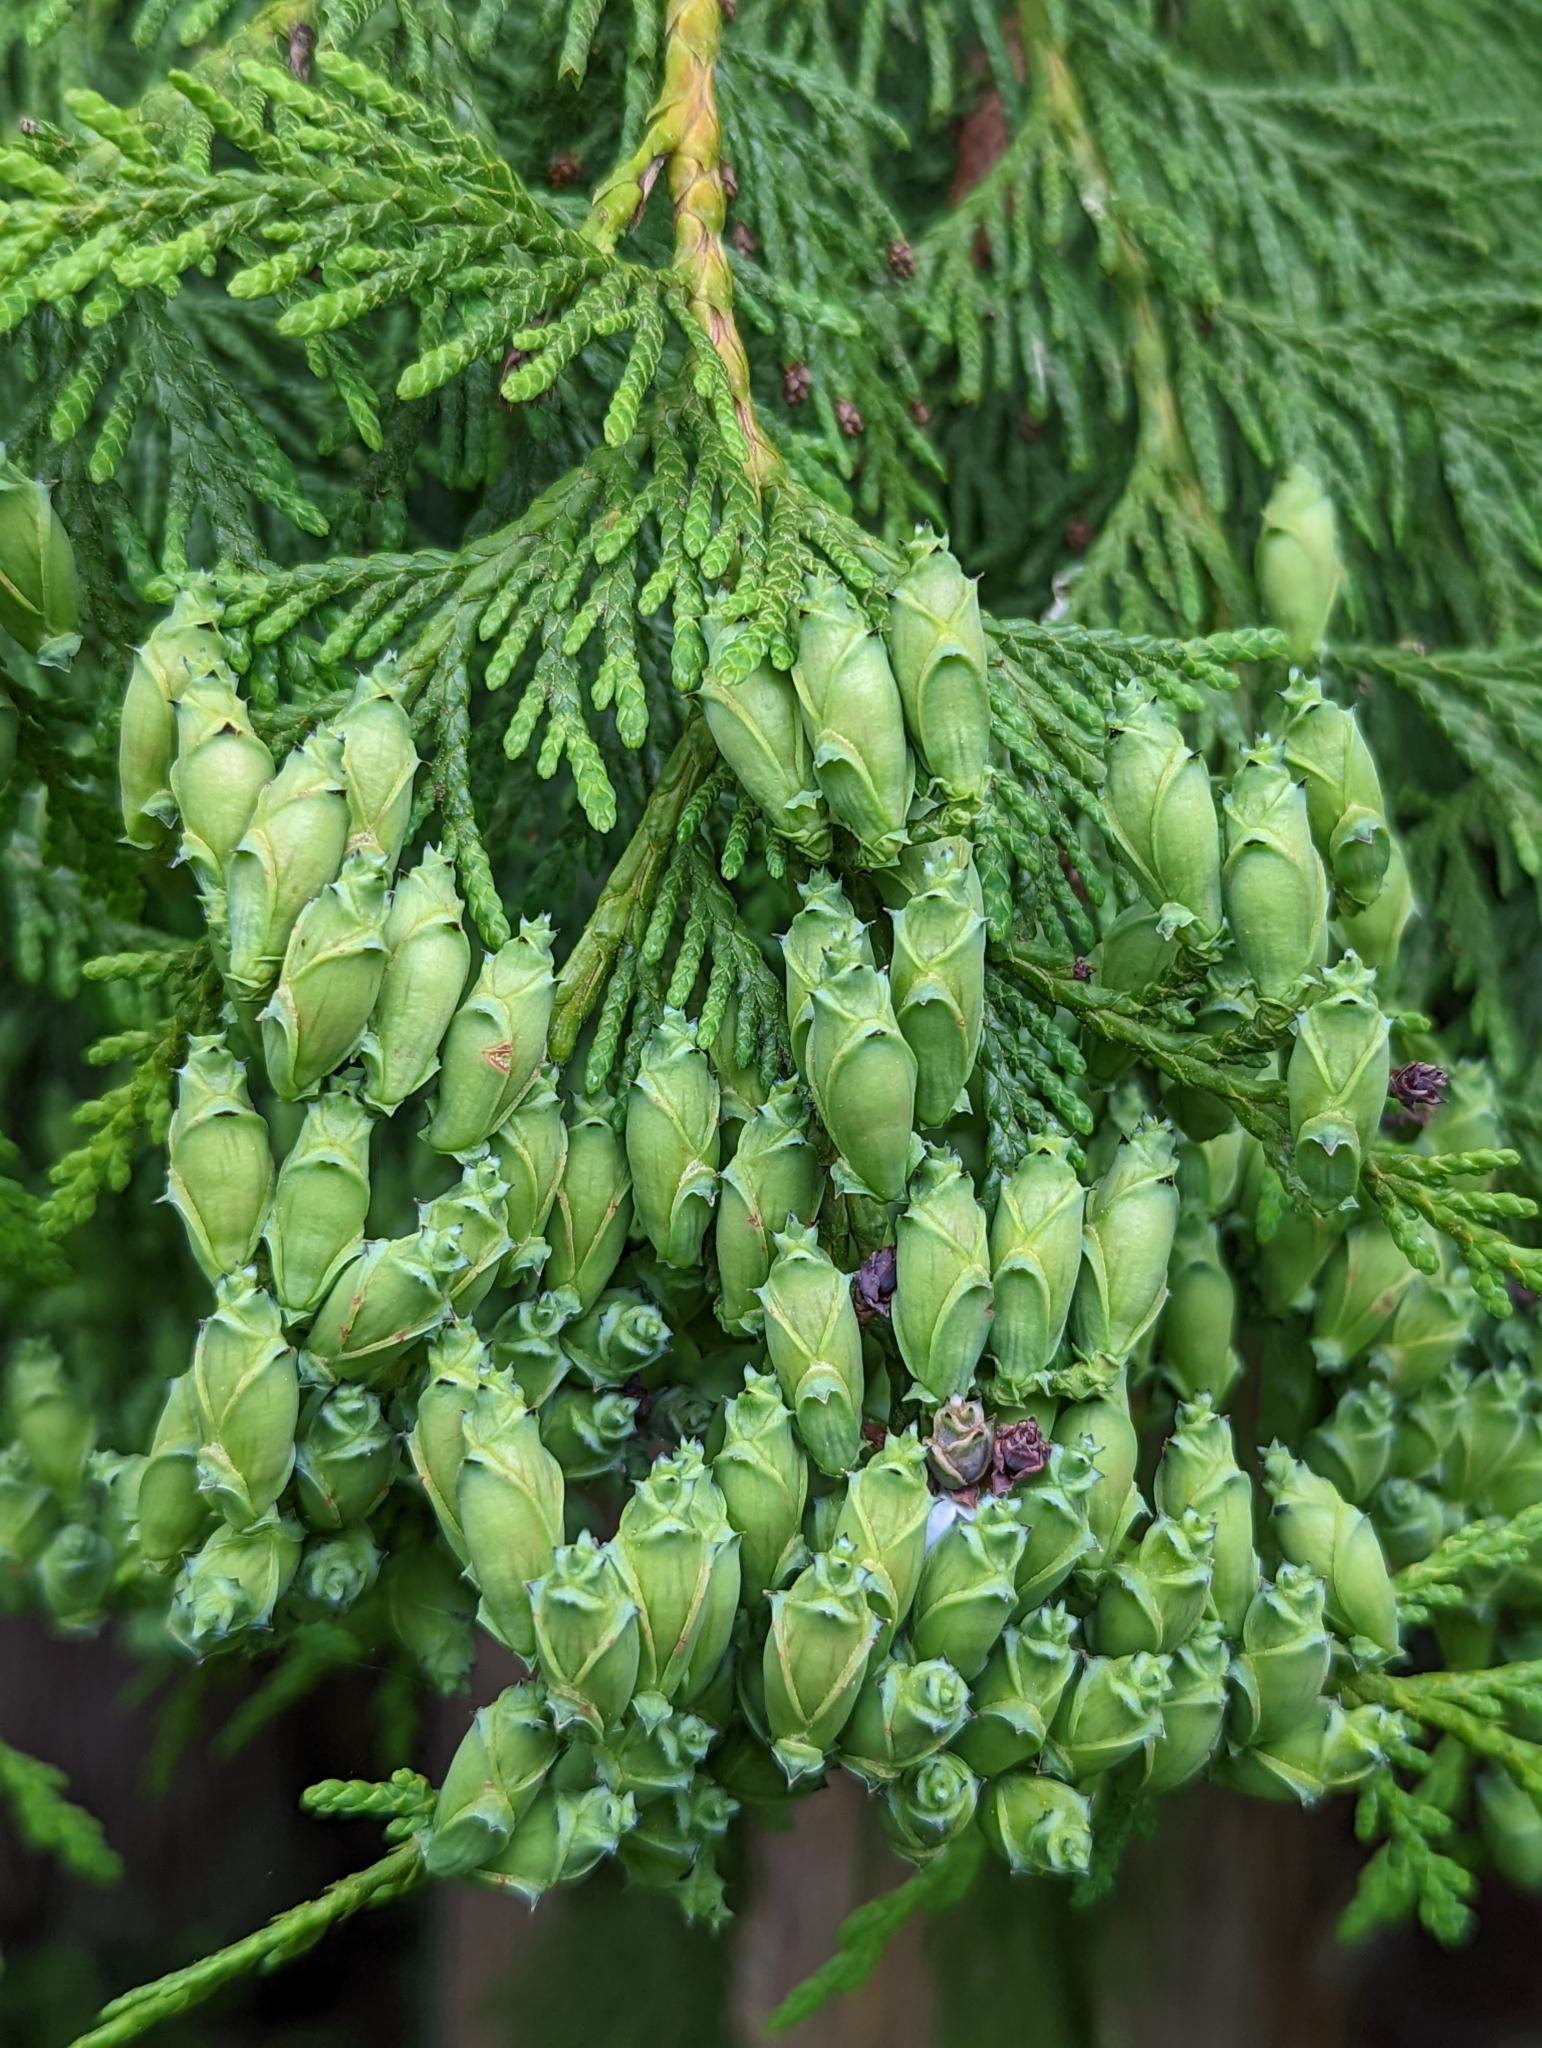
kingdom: Plantae
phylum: Tracheophyta
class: Pinopsida
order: Pinales
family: Cupressaceae
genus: Thuja
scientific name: Thuja plicata
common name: Western red-cedar
